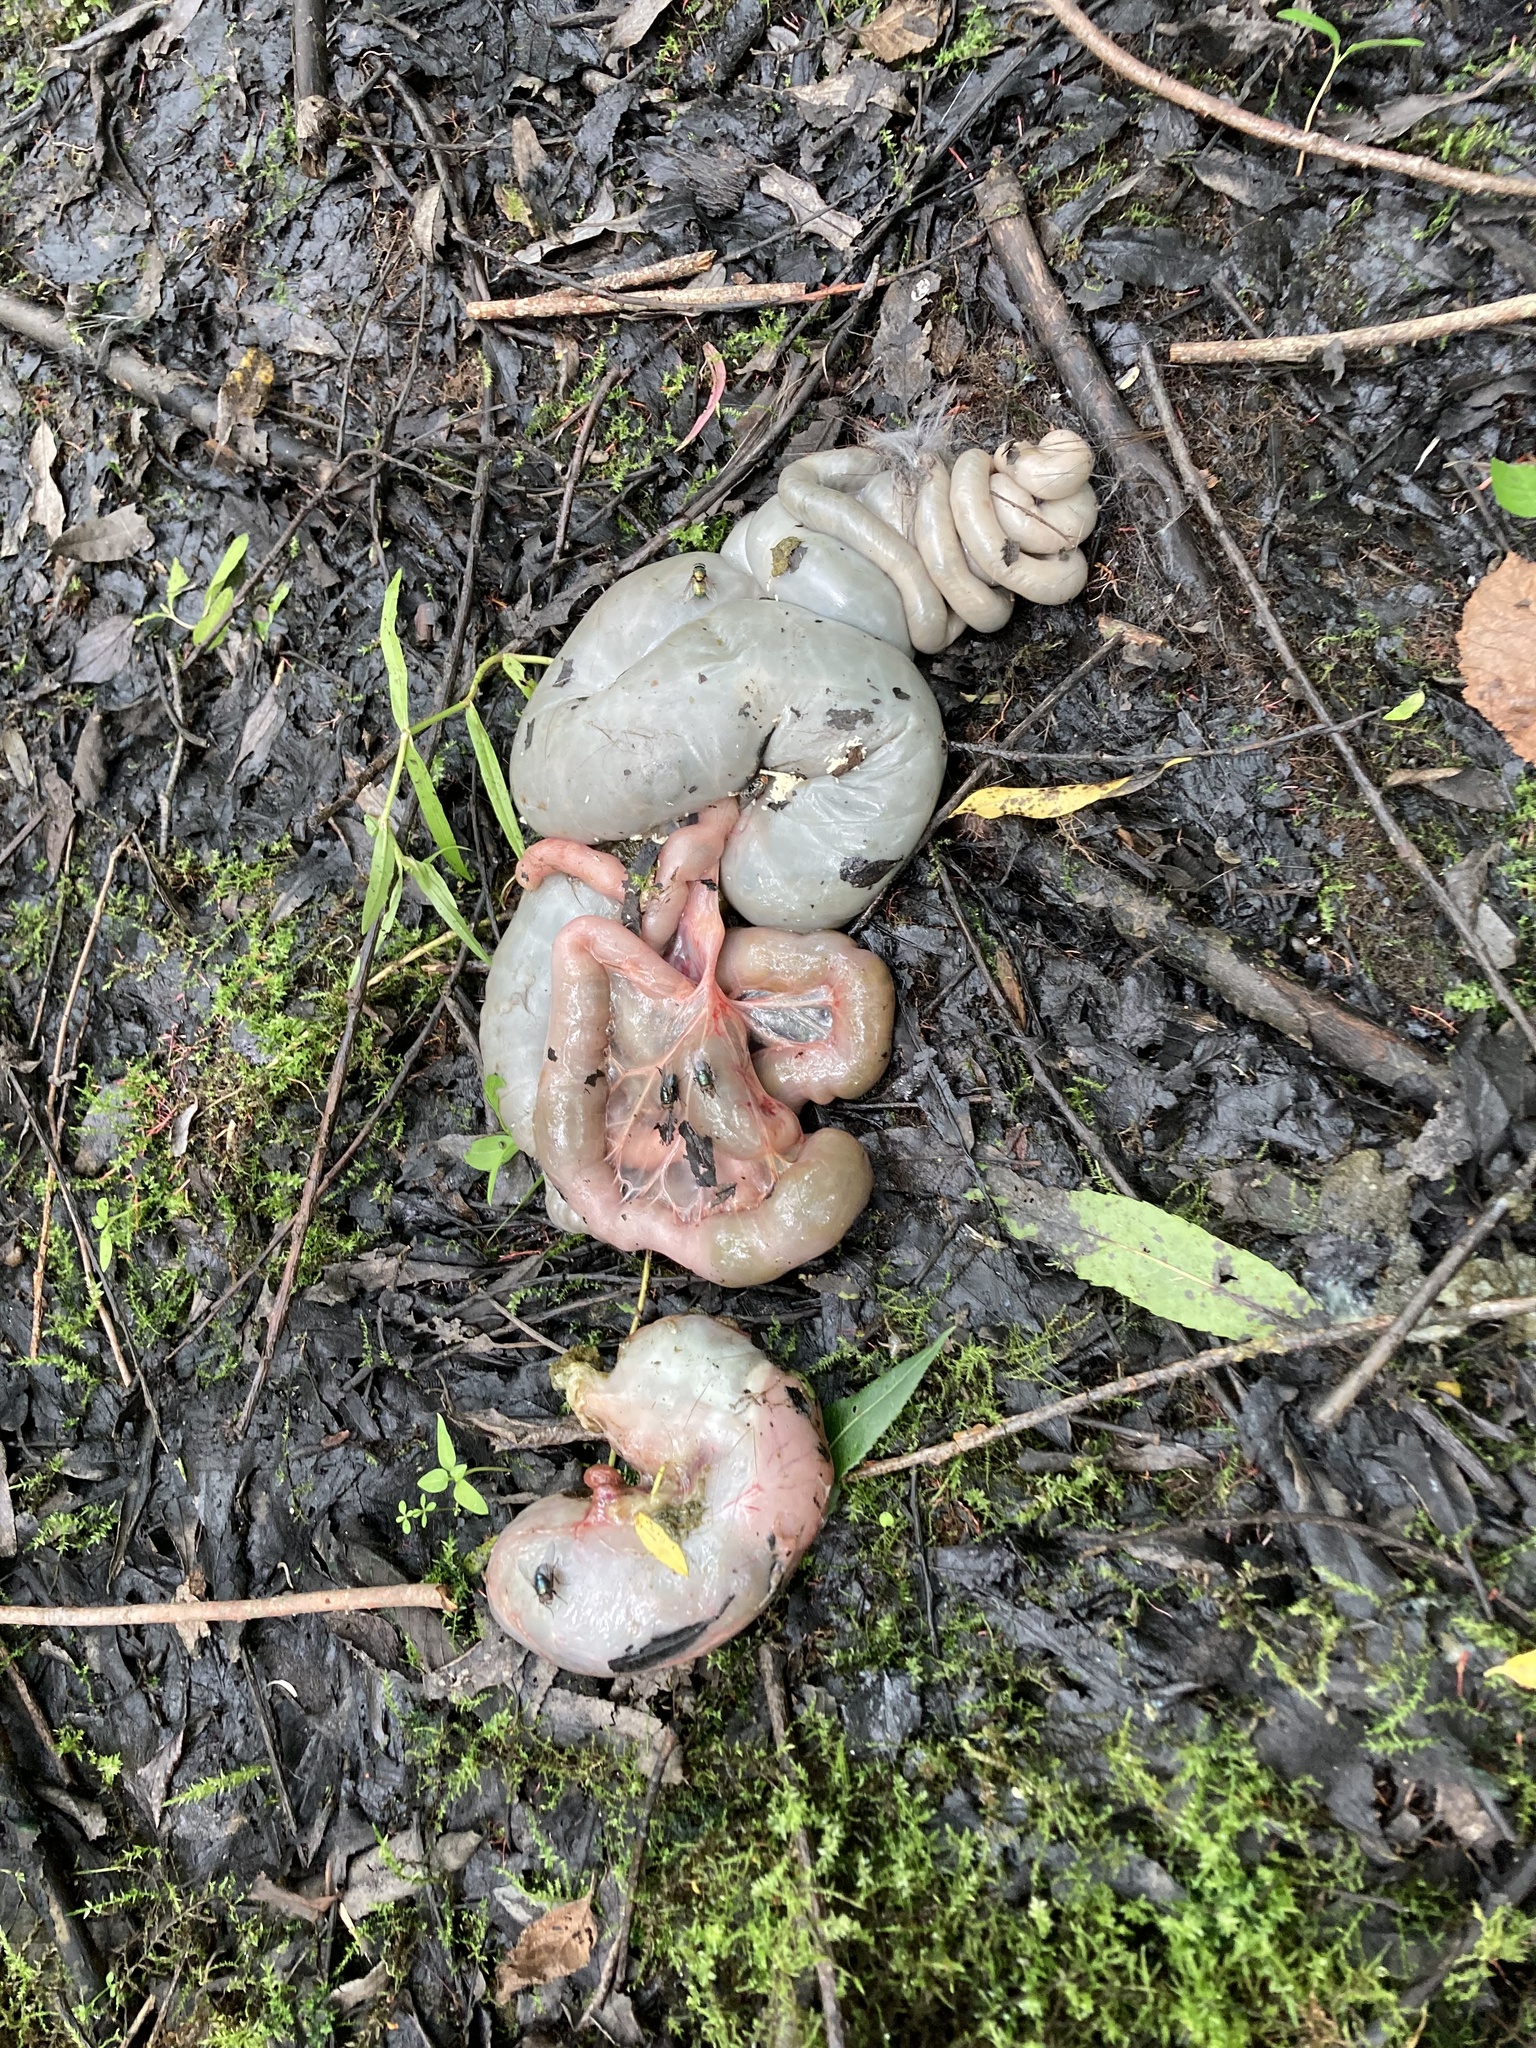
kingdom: Animalia
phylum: Chordata
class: Mammalia
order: Rodentia
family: Cricetidae
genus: Ondatra
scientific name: Ondatra zibethicus
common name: Muskrat
